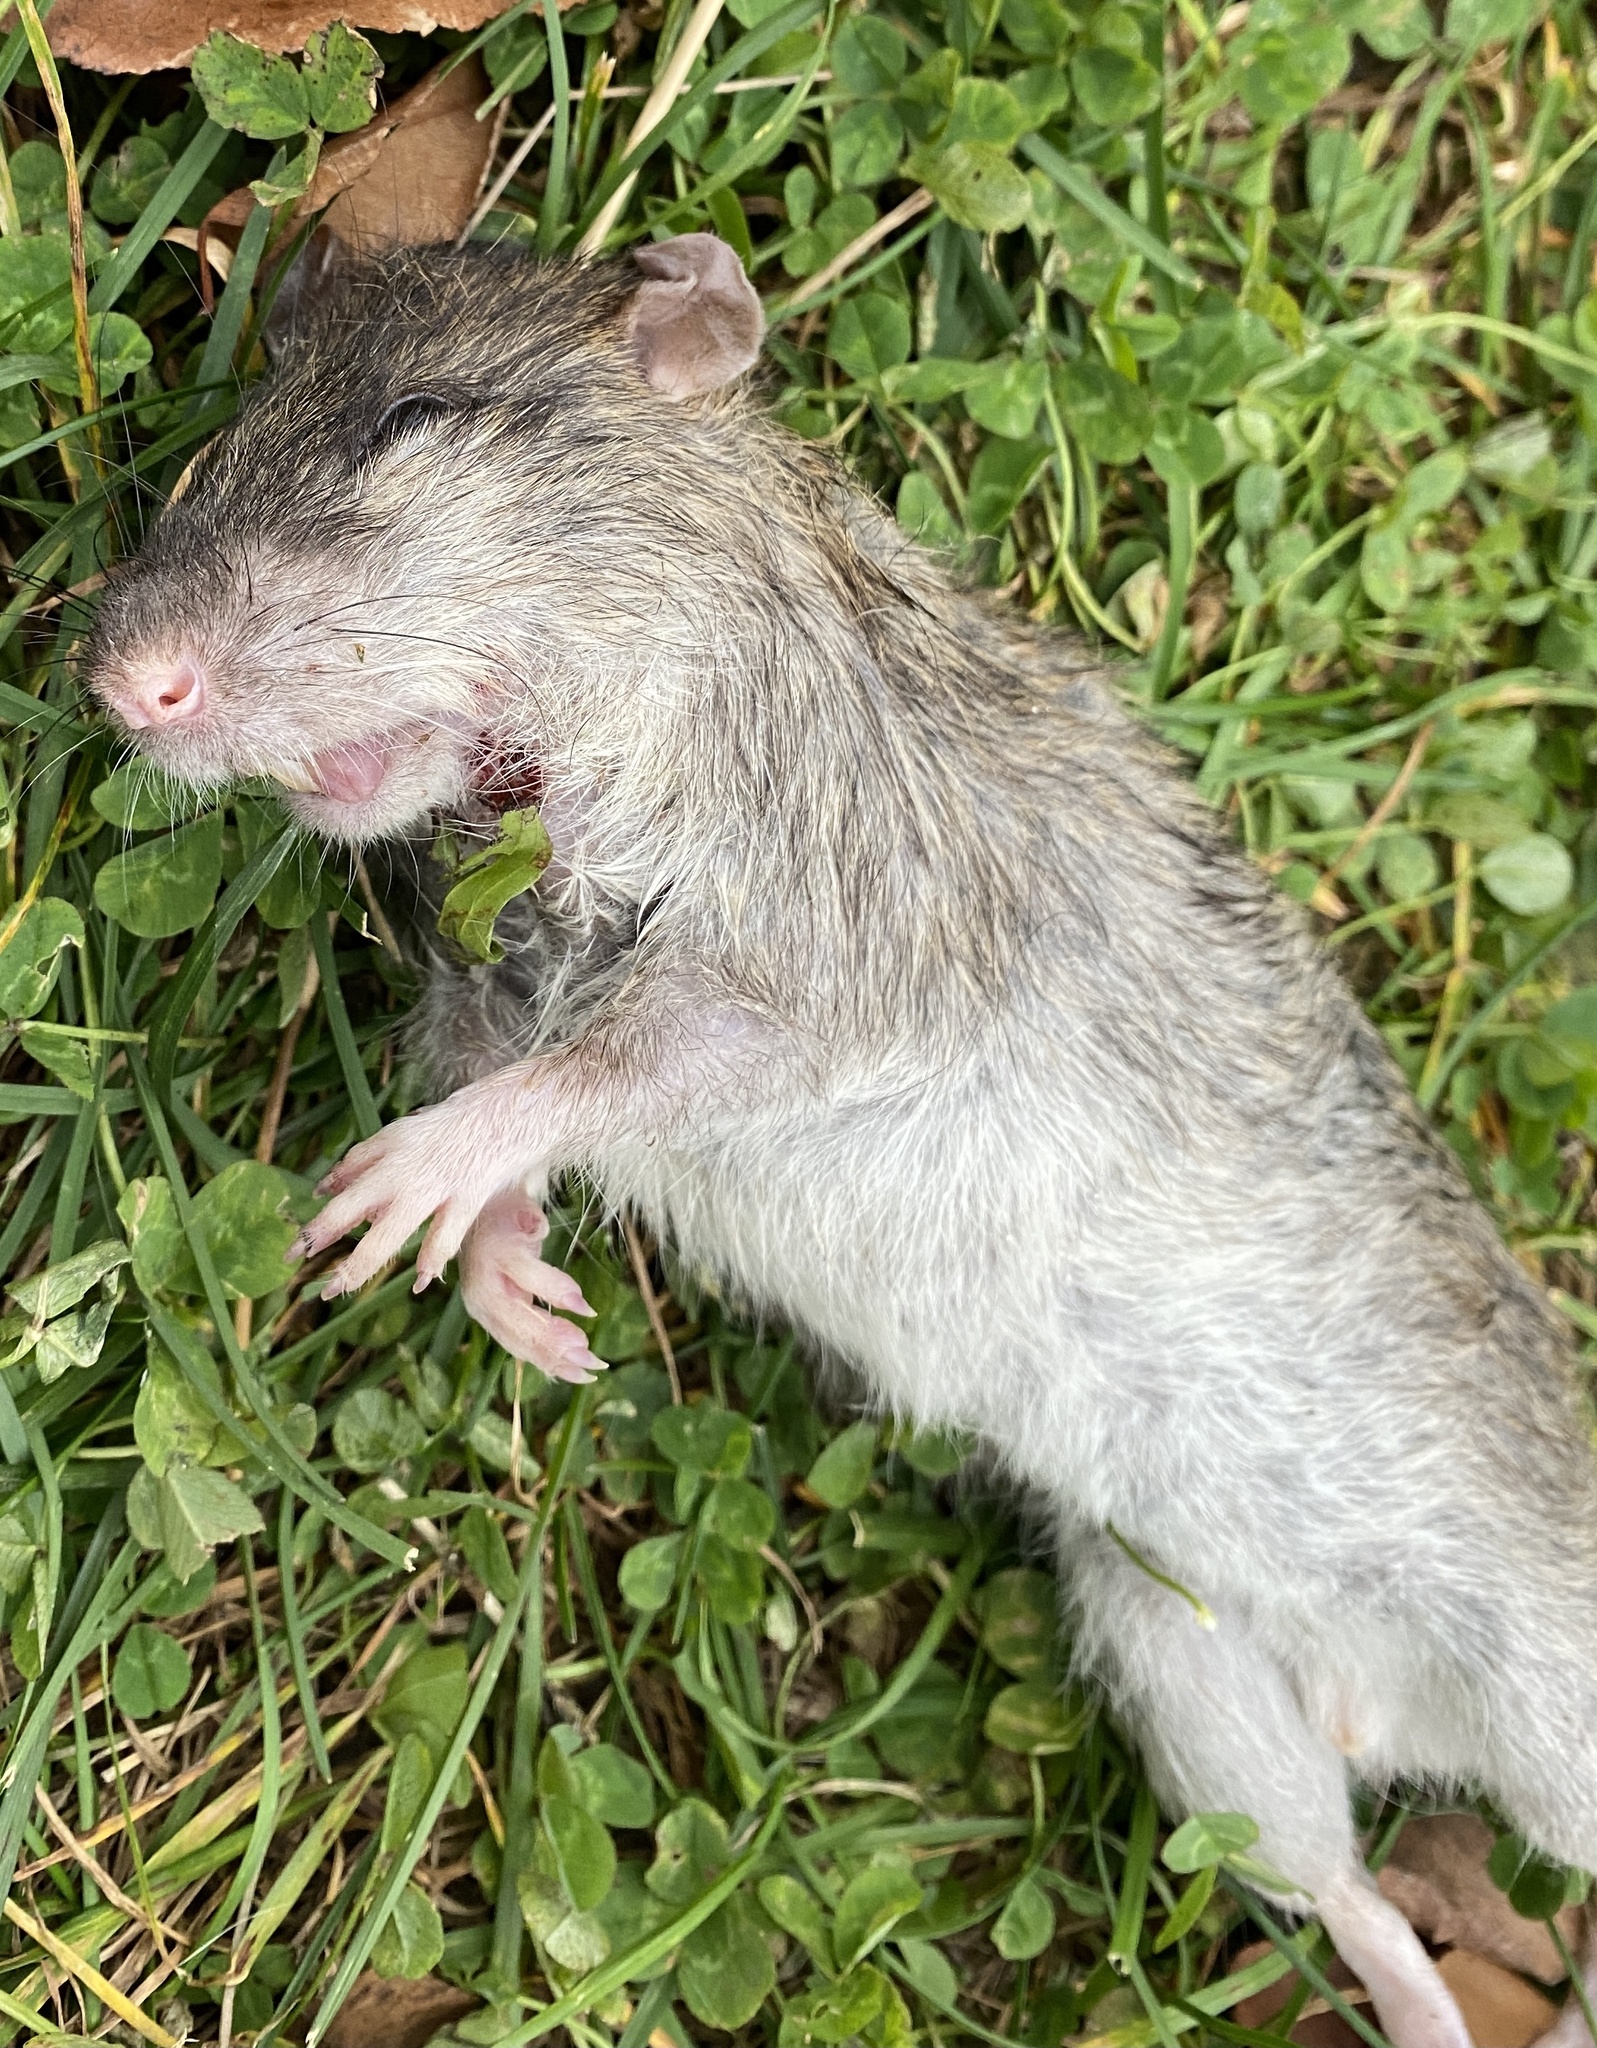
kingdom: Animalia
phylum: Chordata
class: Mammalia
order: Rodentia
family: Muridae
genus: Rattus
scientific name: Rattus norvegicus
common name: Brown rat
